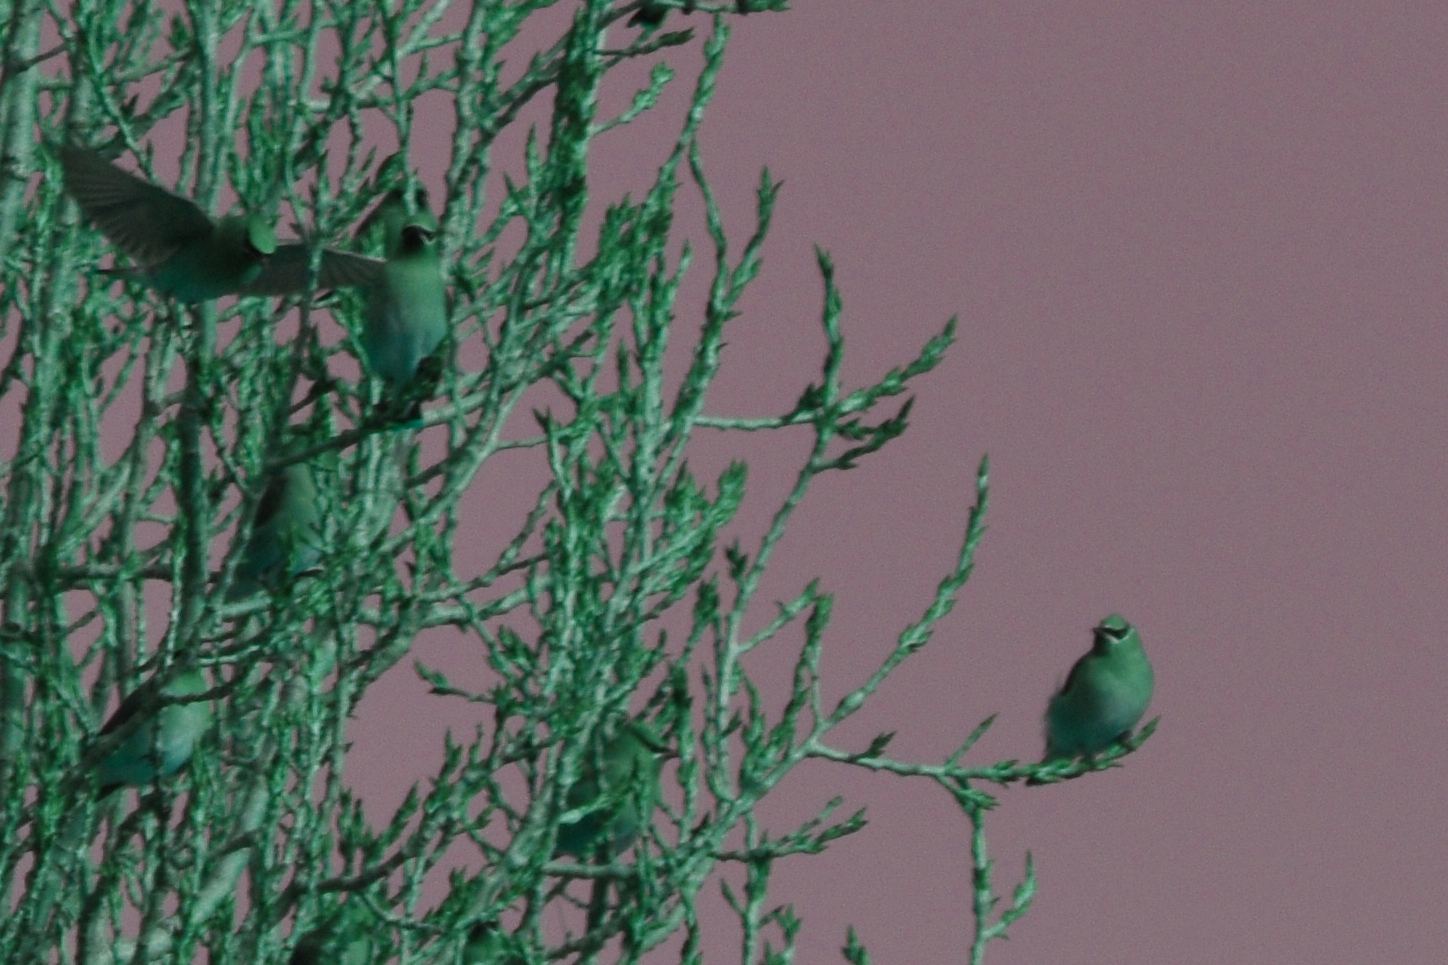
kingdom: Animalia
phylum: Chordata
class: Aves
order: Passeriformes
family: Bombycillidae
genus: Bombycilla
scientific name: Bombycilla cedrorum
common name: Cedar waxwing
